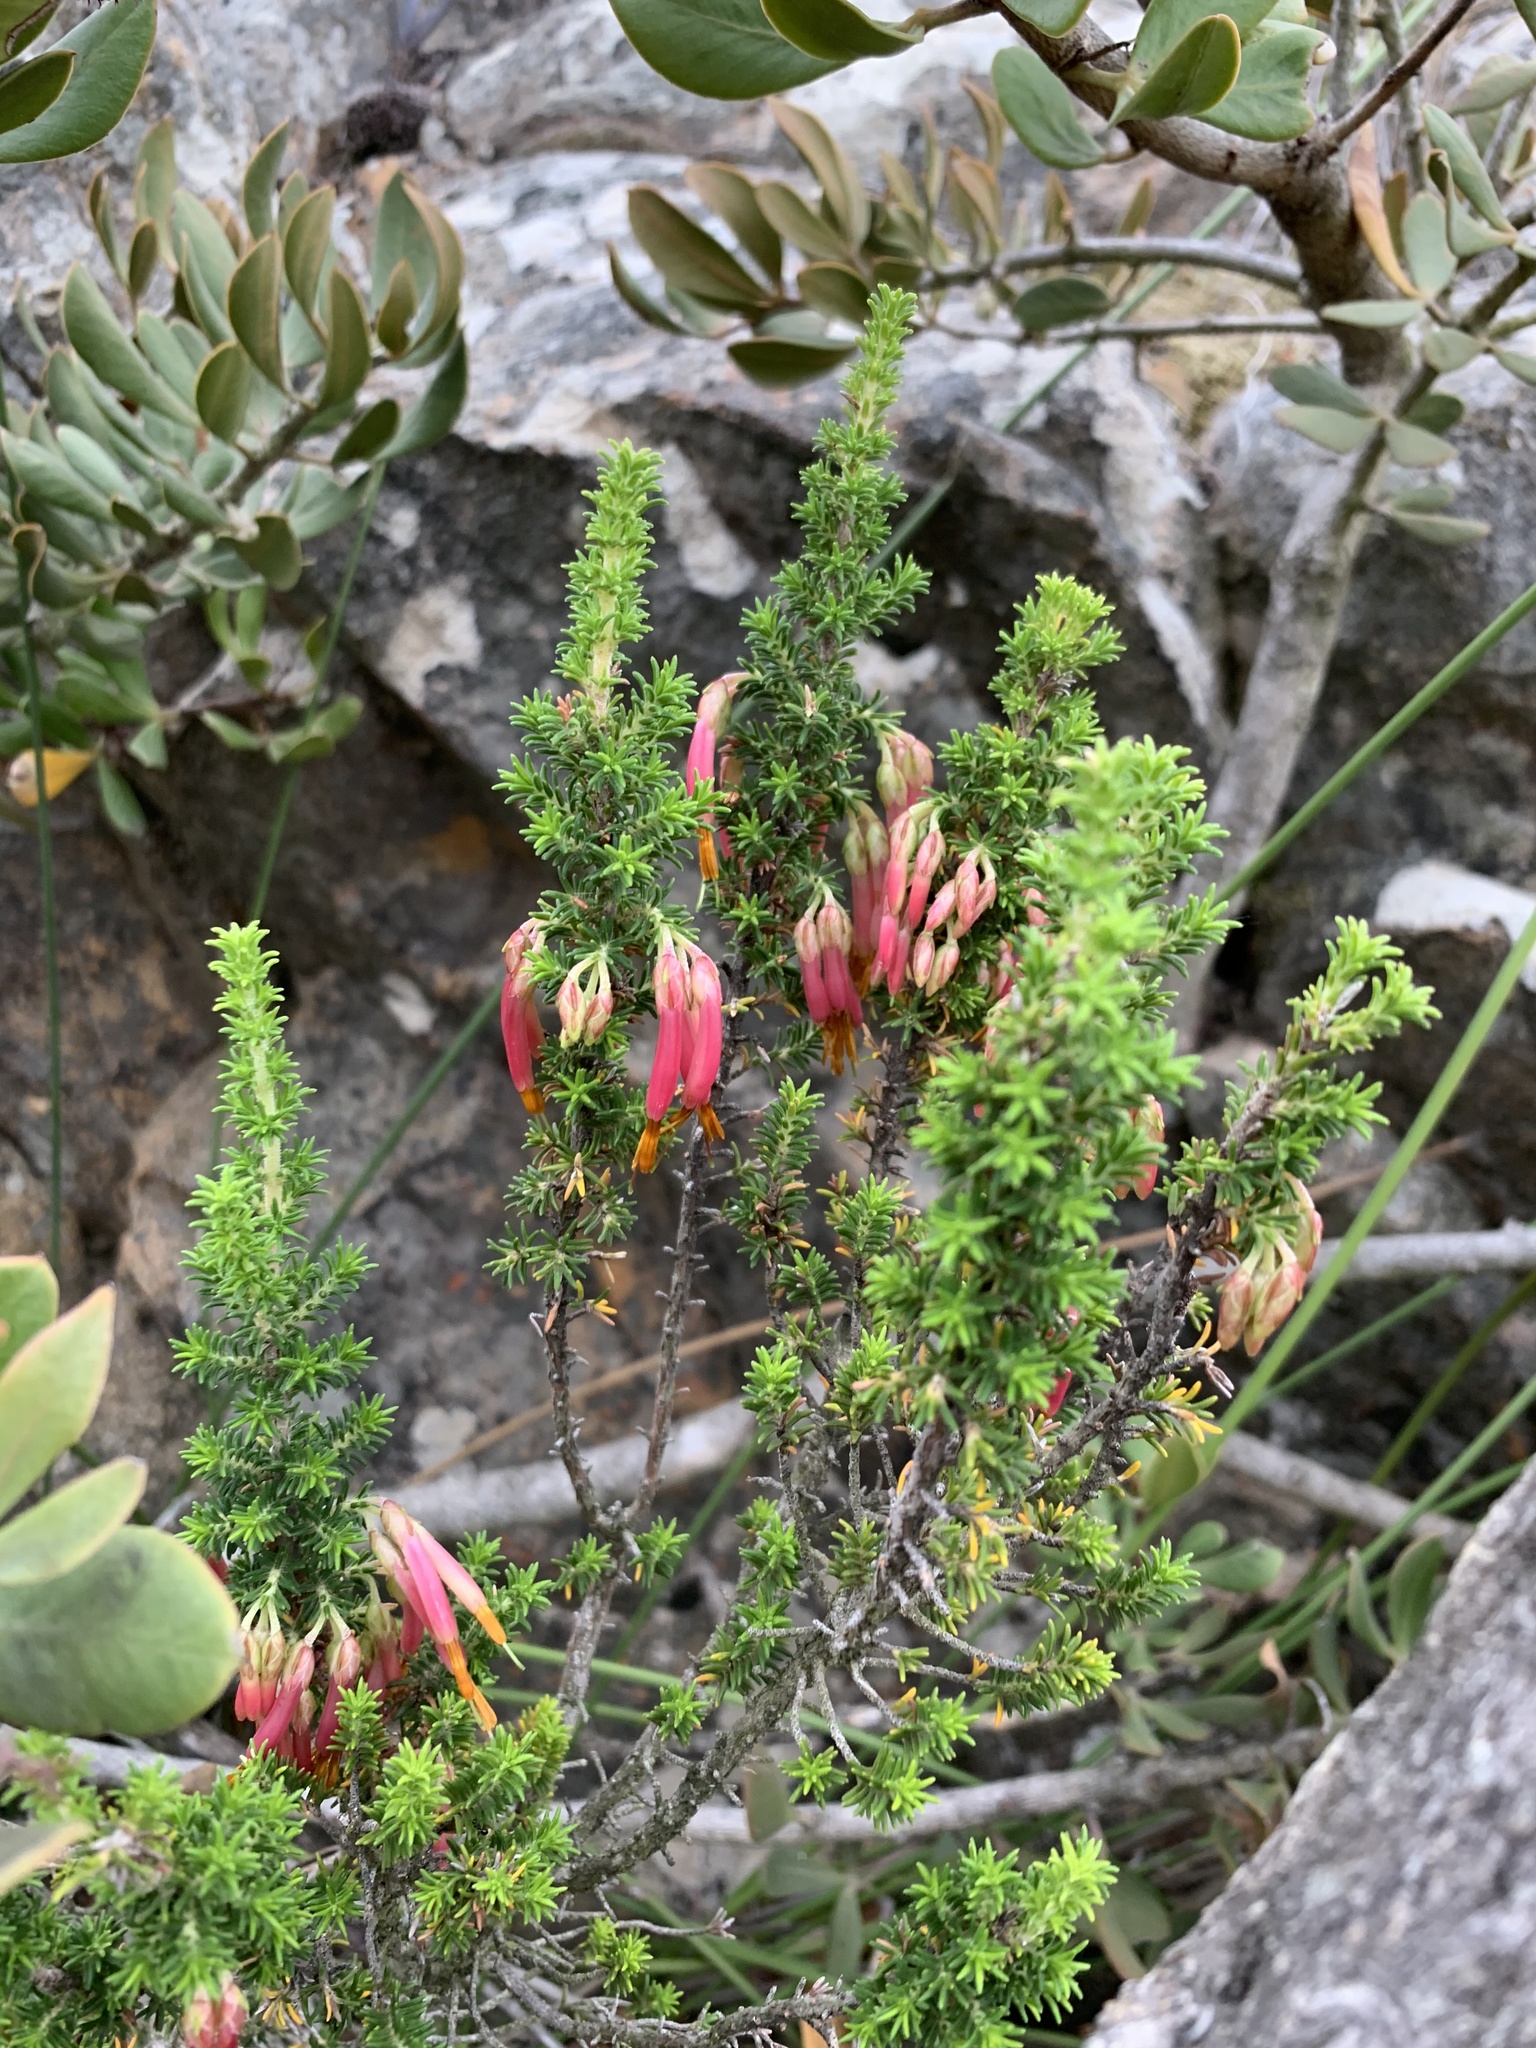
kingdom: Plantae
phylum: Tracheophyta
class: Magnoliopsida
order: Ericales
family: Ericaceae
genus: Erica
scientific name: Erica coccinea
